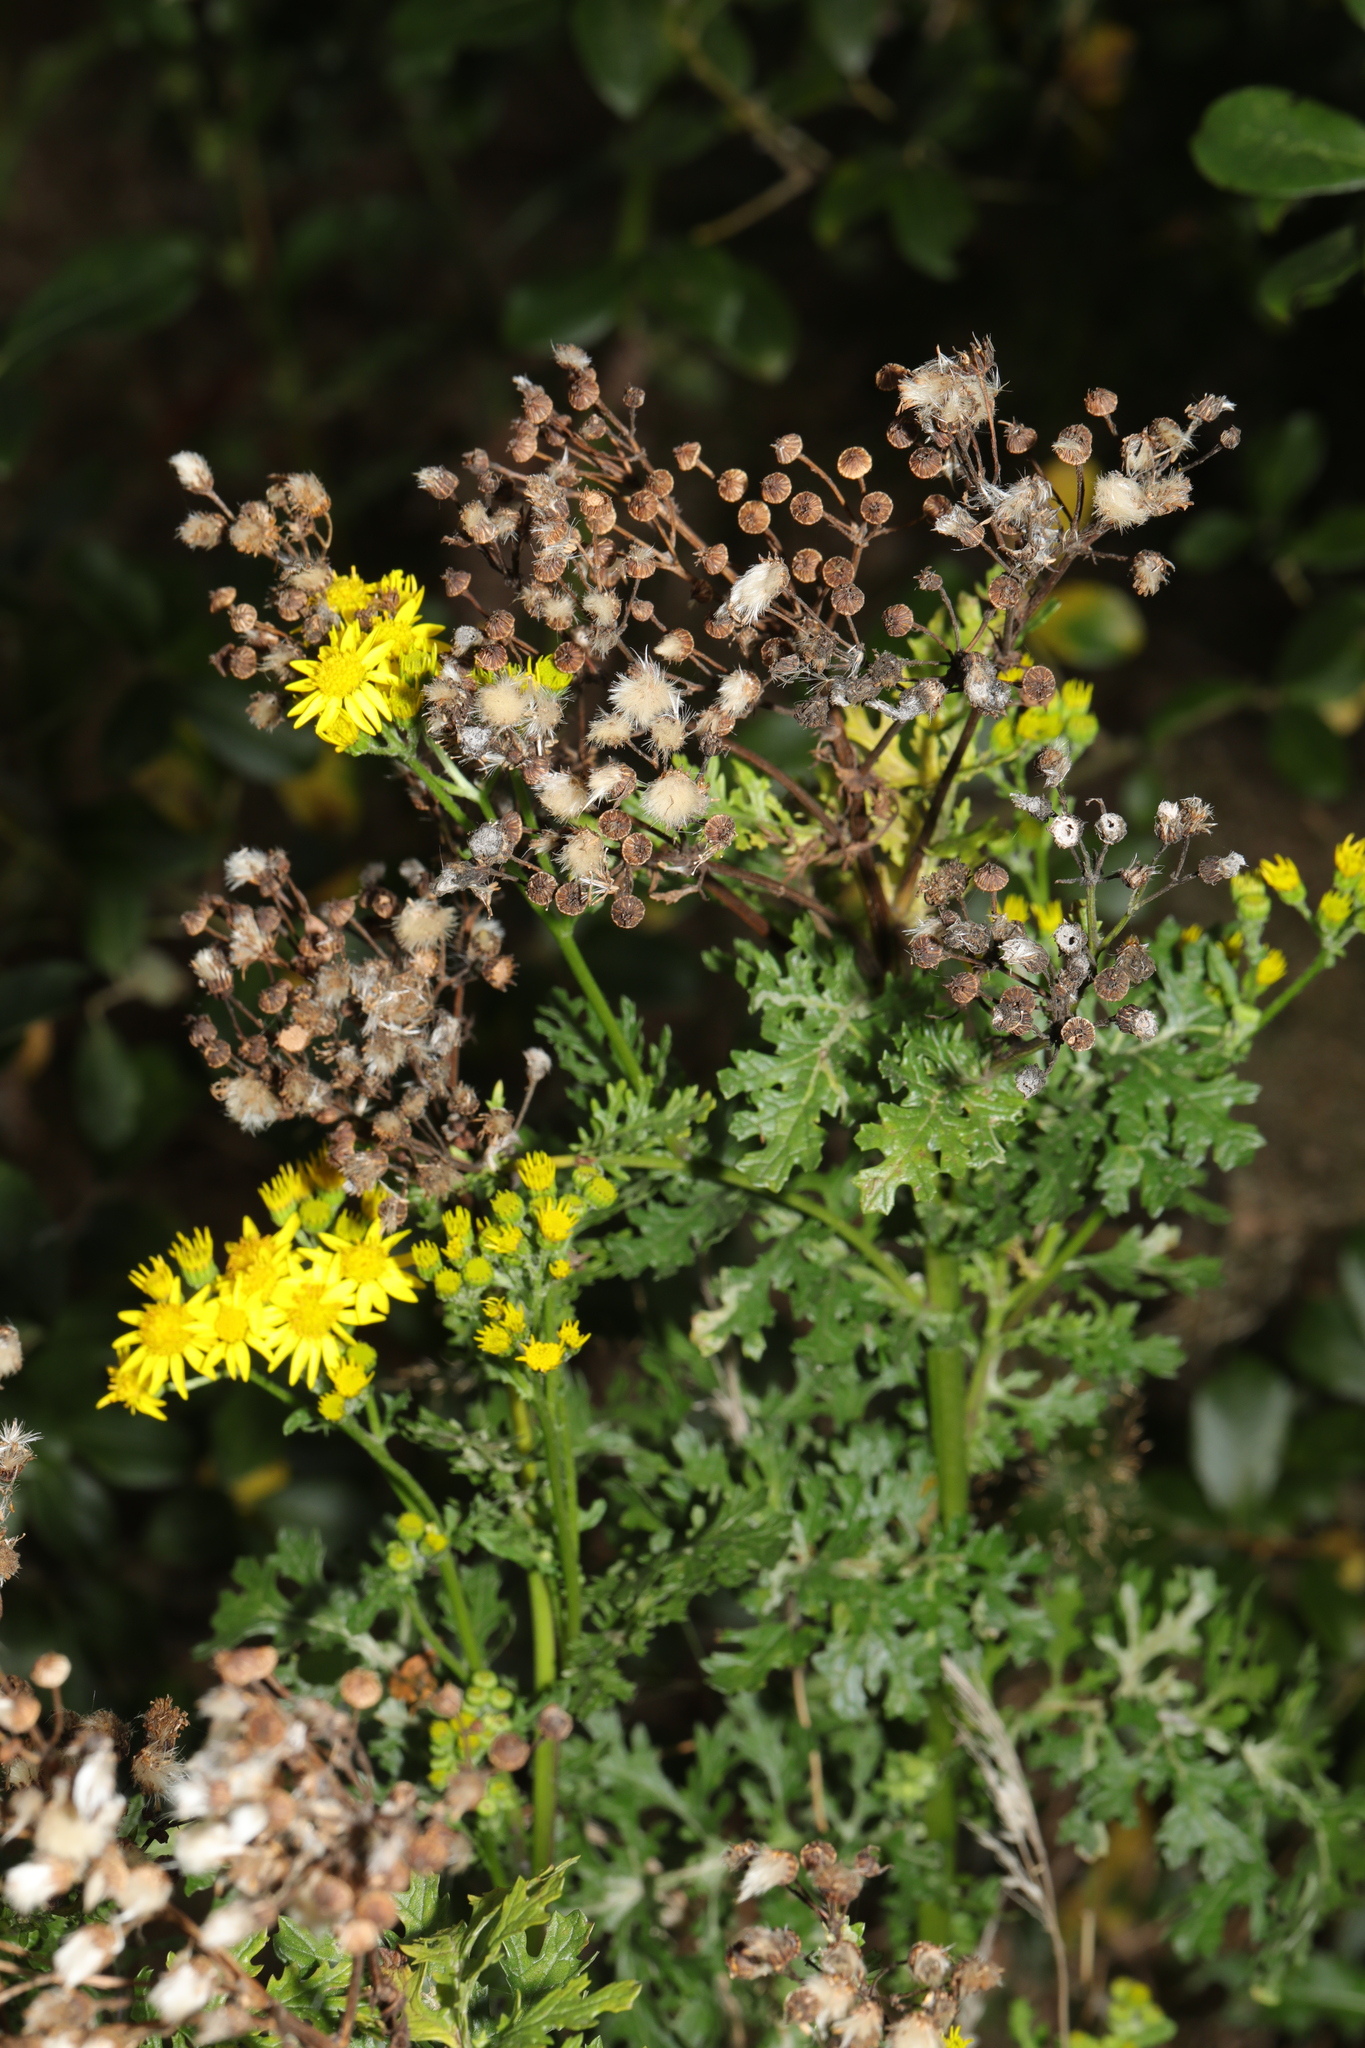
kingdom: Plantae
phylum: Tracheophyta
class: Magnoliopsida
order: Asterales
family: Asteraceae
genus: Jacobaea
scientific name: Jacobaea vulgaris
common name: Stinking willie
